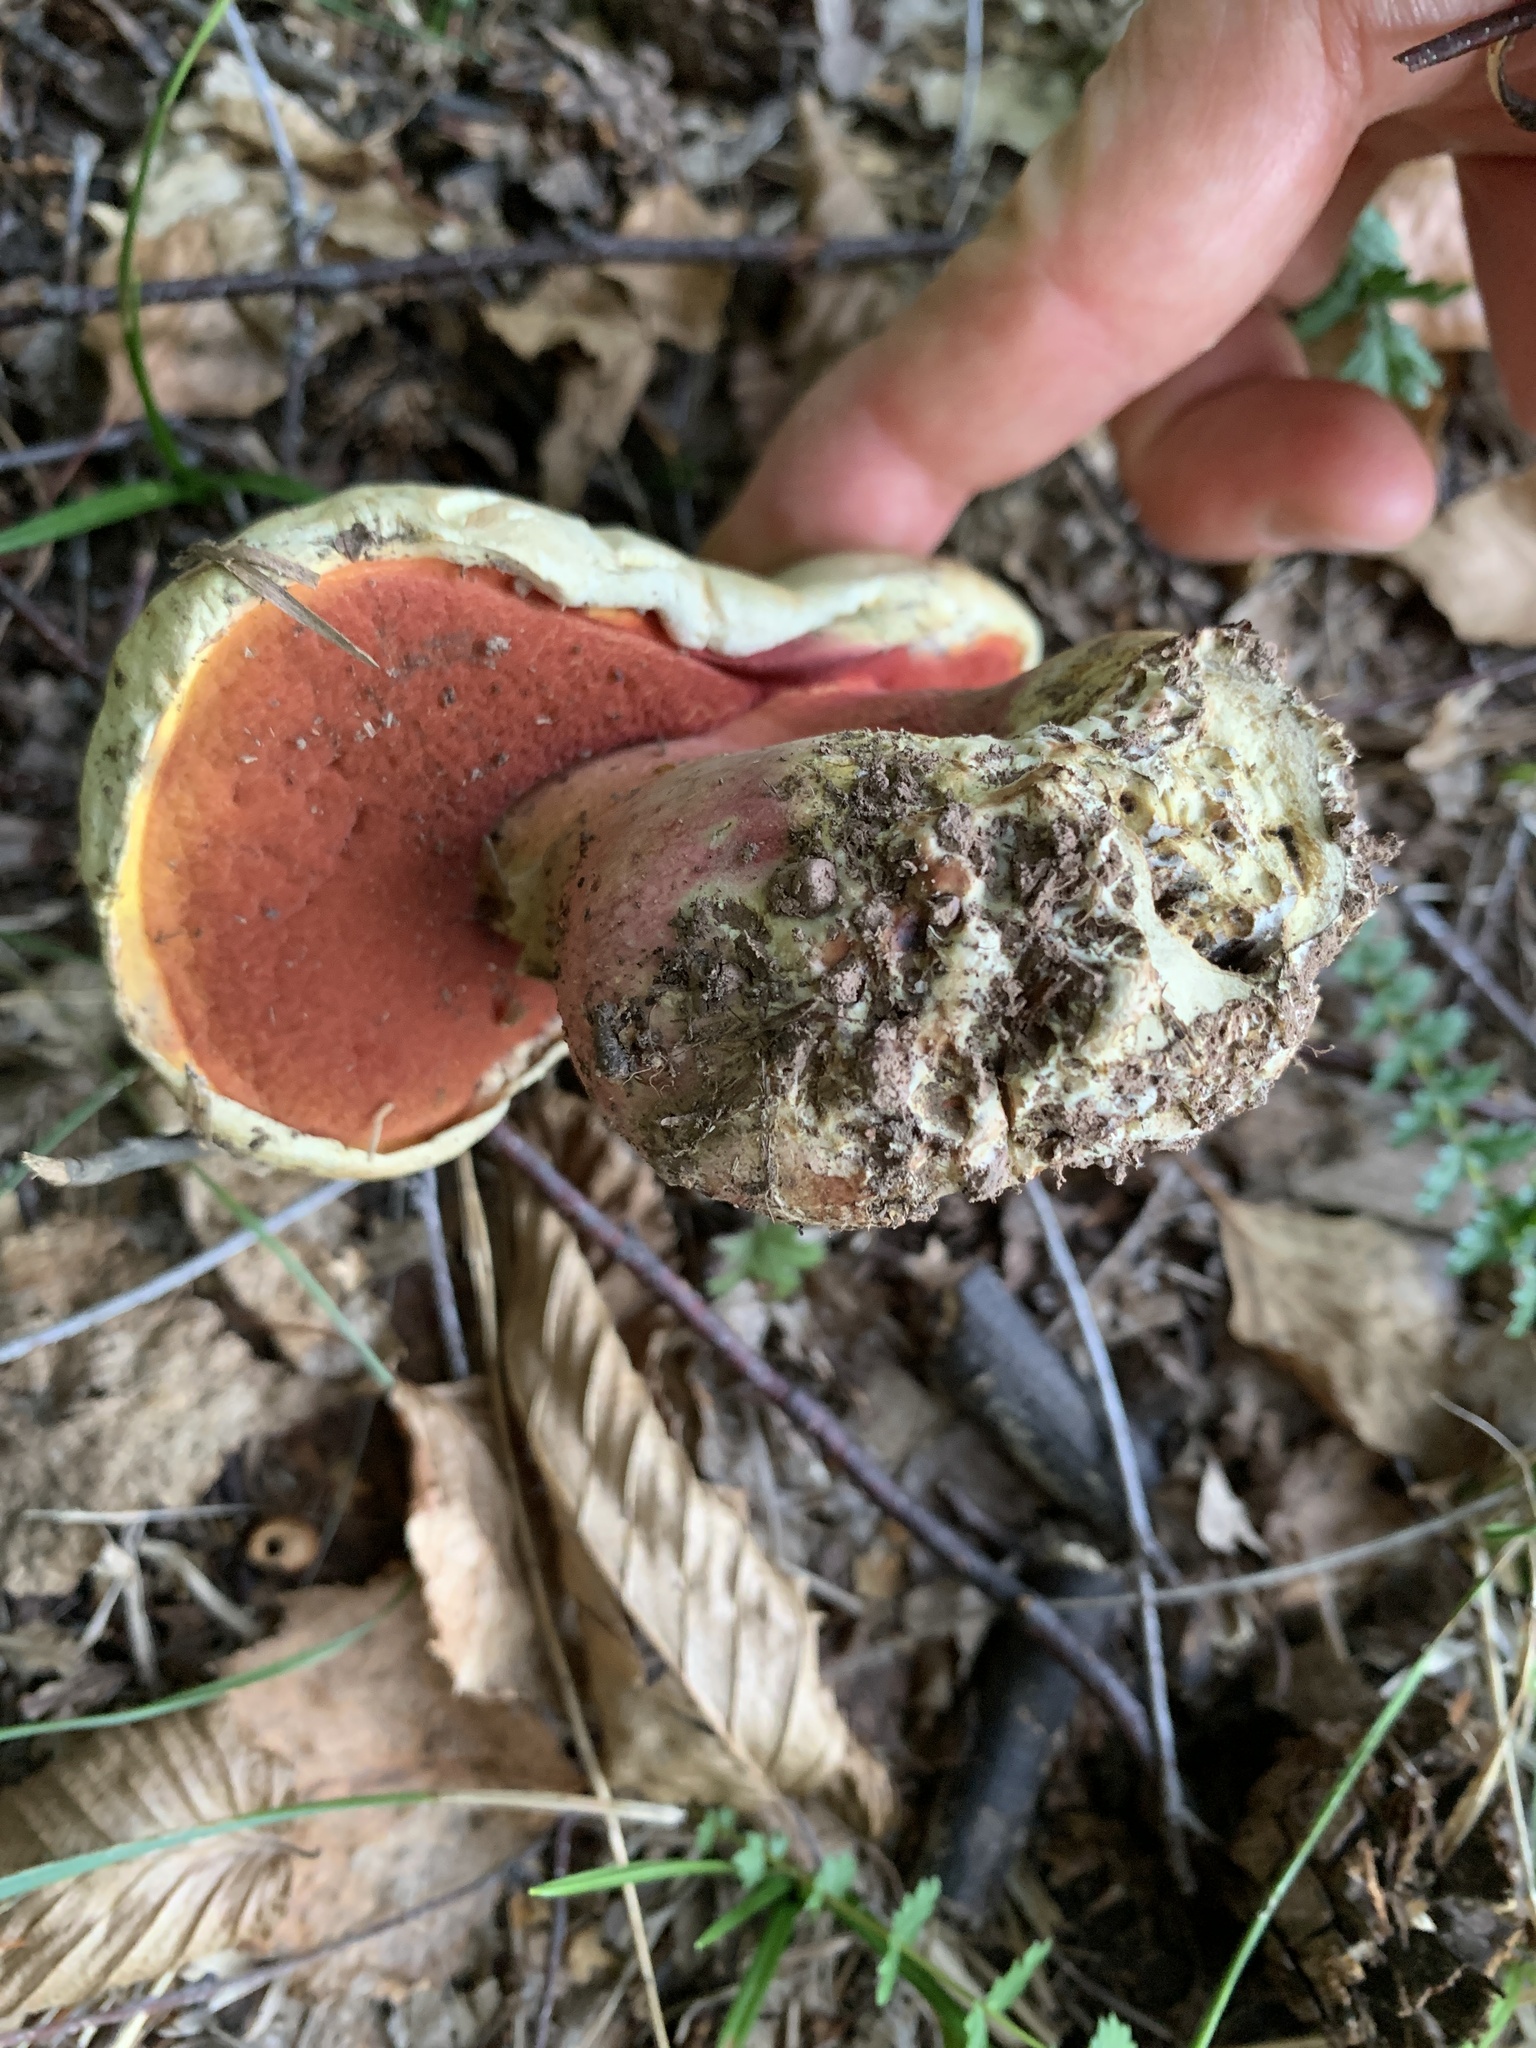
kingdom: Fungi
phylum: Basidiomycota
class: Agaricomycetes
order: Boletales
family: Boletaceae
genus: Rubroboletus
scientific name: Rubroboletus satanas
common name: Devil's bolete
